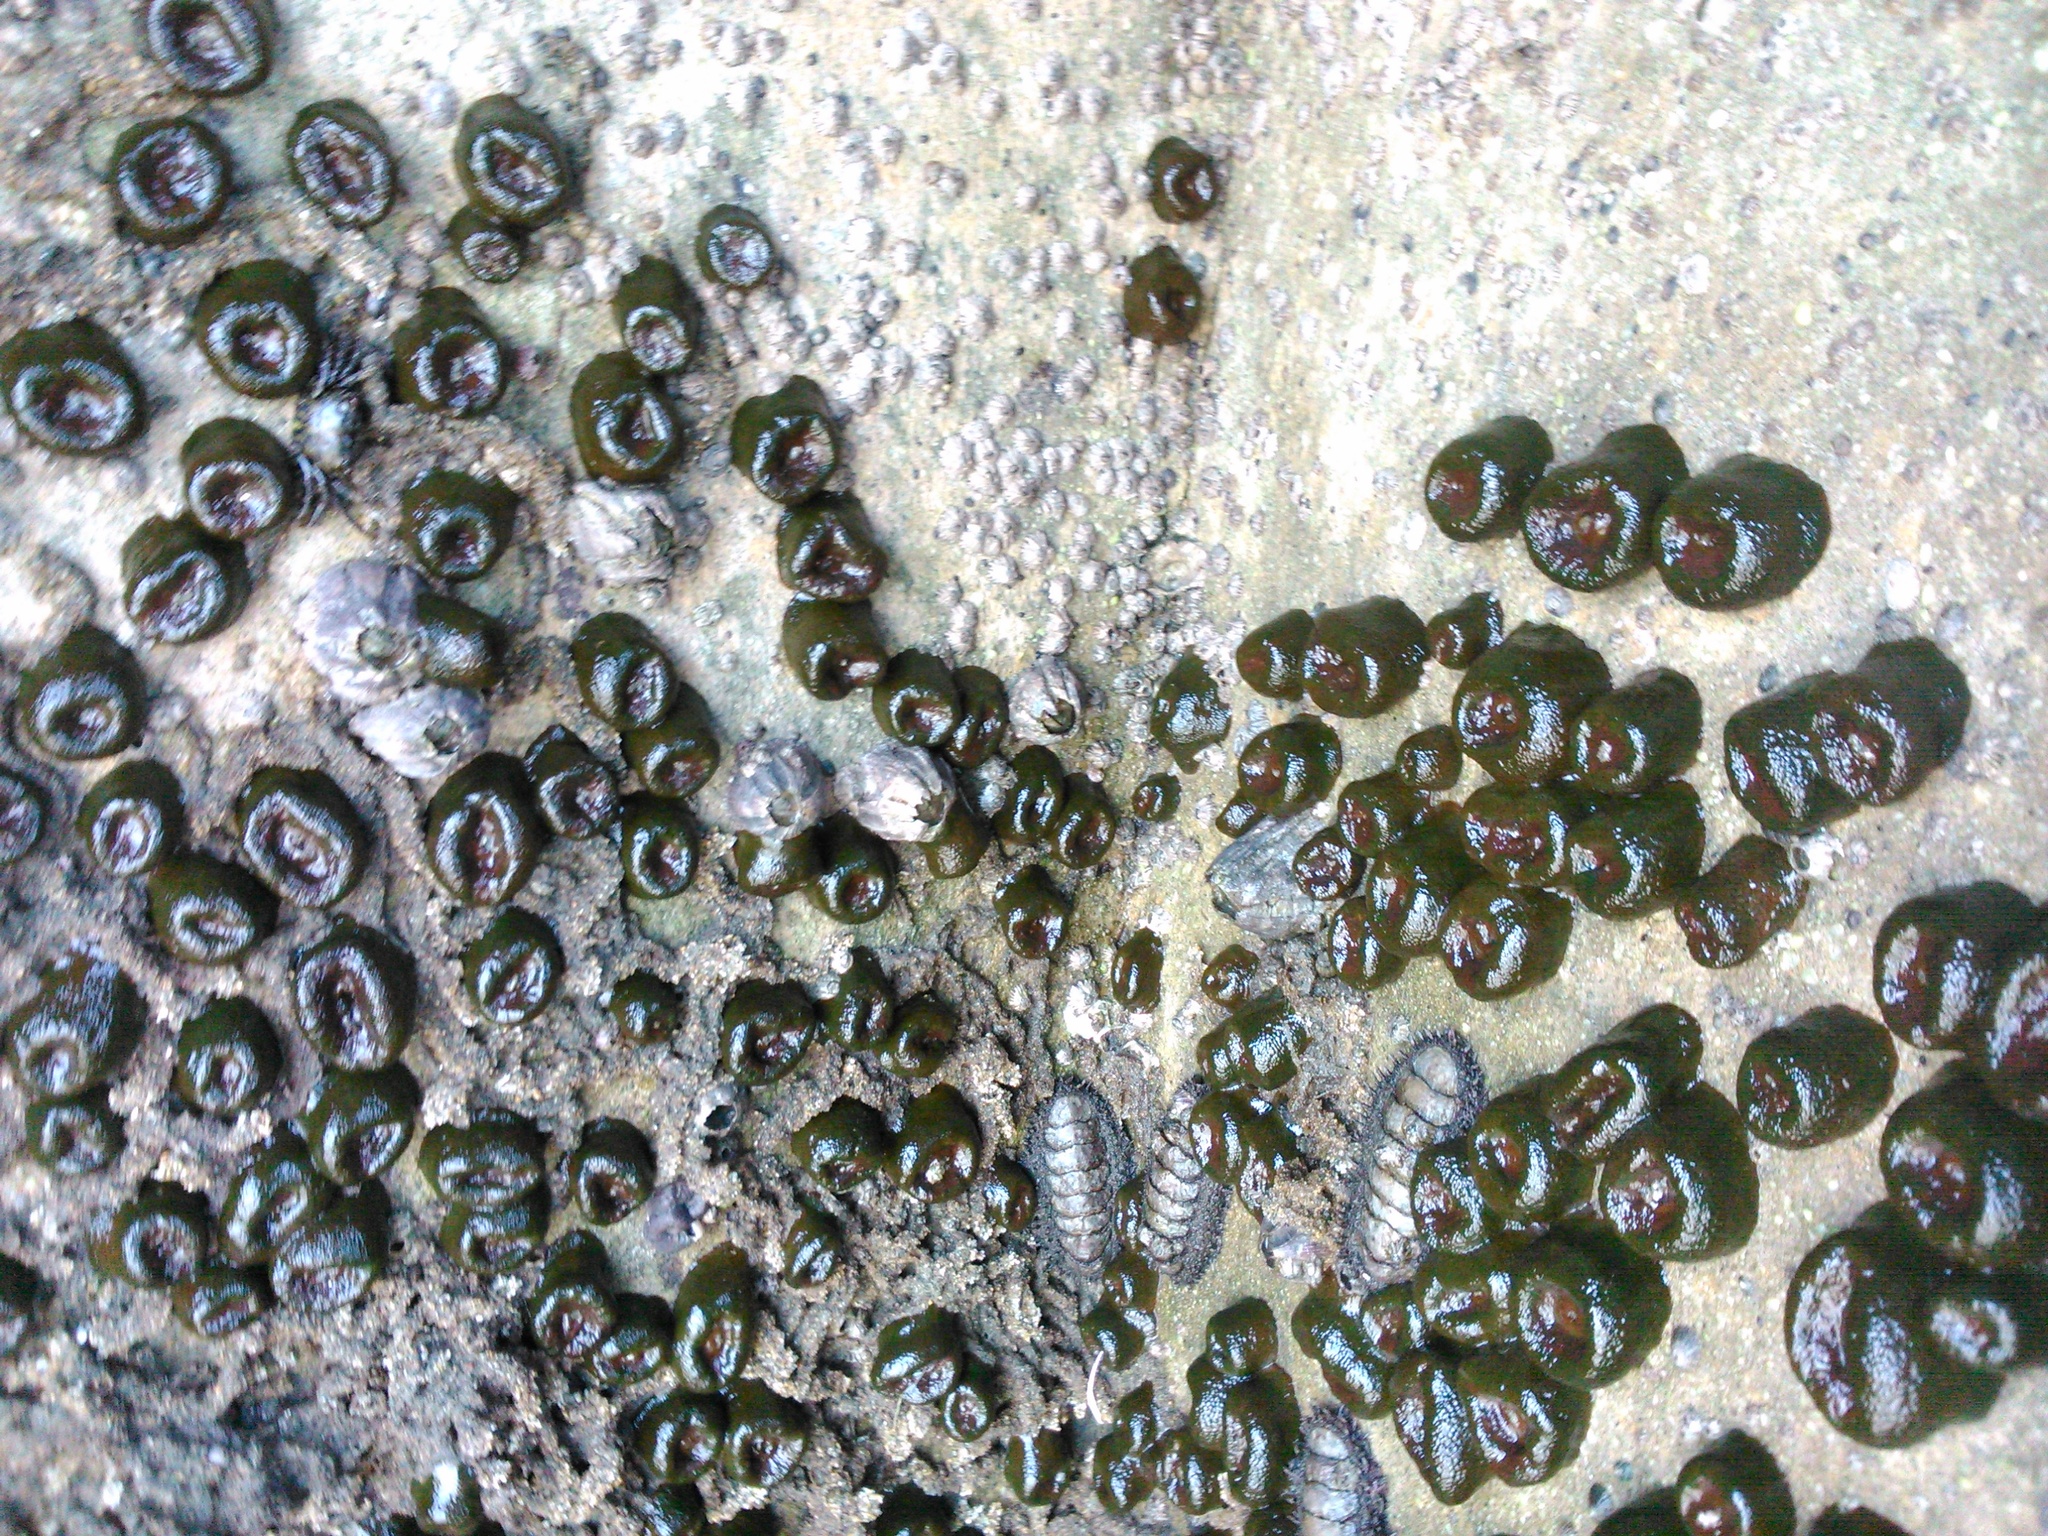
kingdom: Animalia
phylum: Arthropoda
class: Maxillopoda
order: Sessilia
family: Balanidae
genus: Megabalanus
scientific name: Megabalanus coccopoma
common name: Titan acorn barnacle
